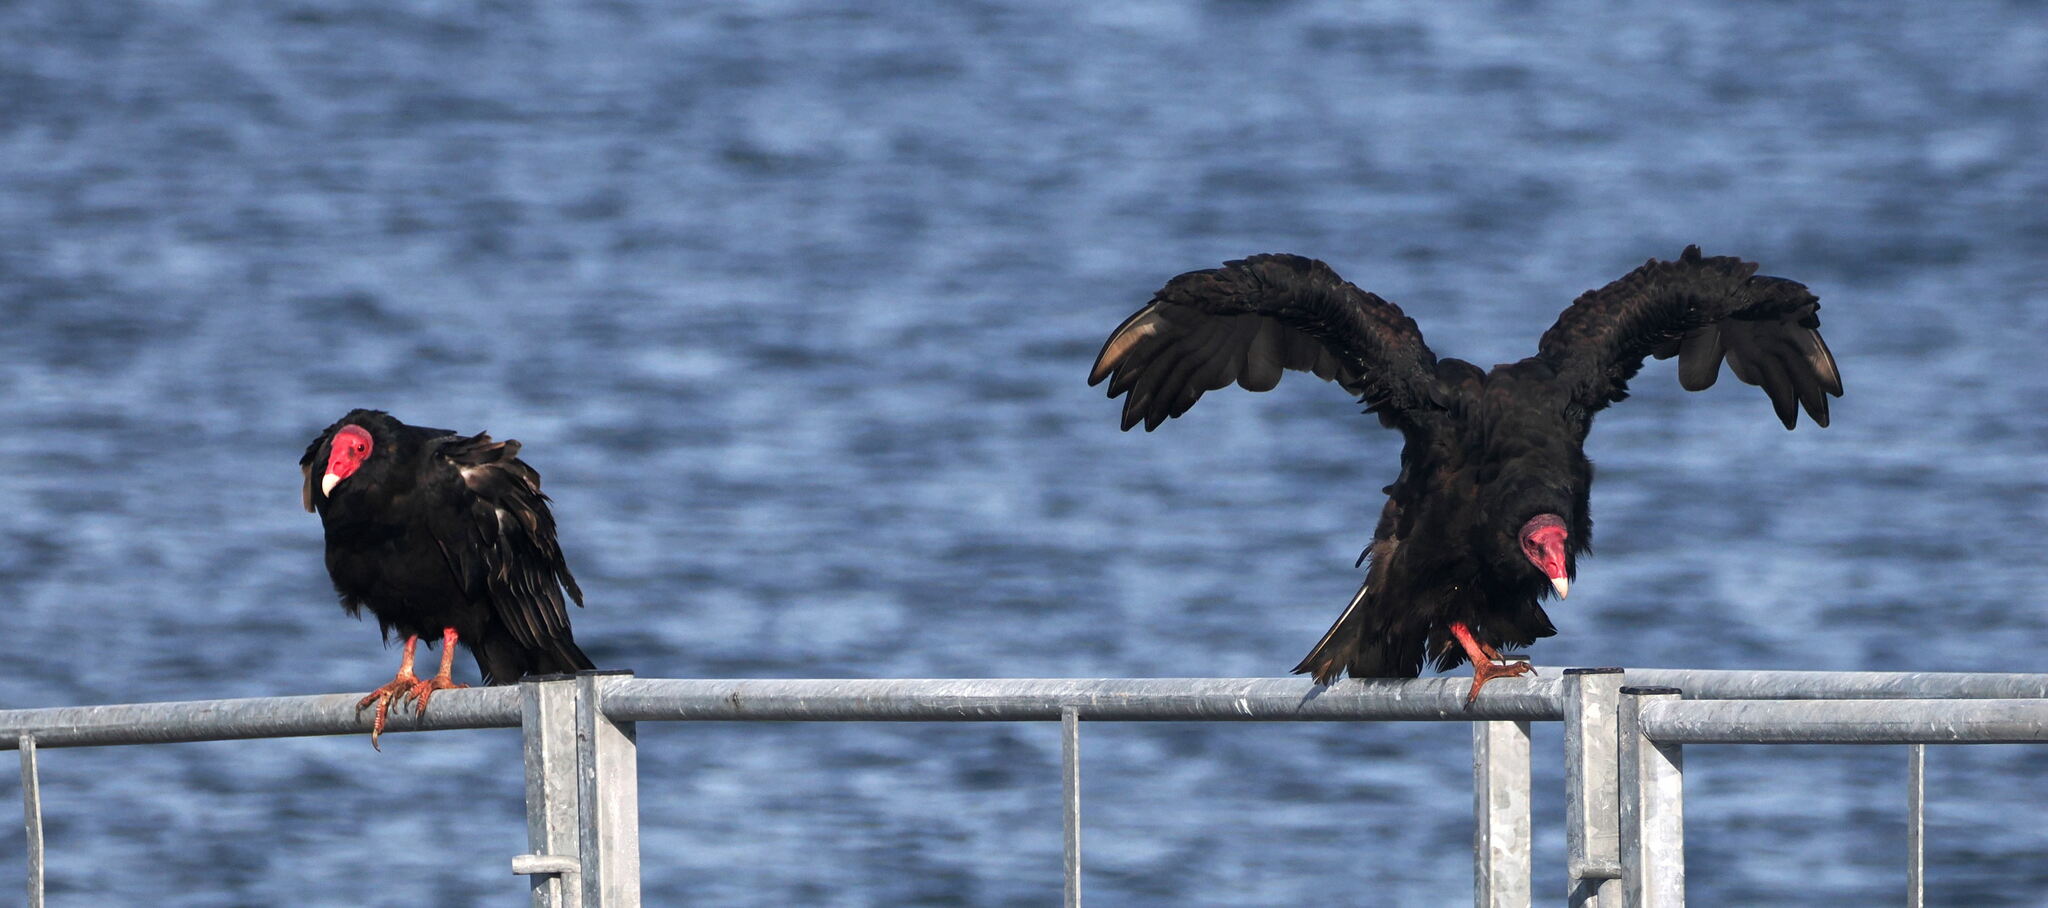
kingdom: Animalia
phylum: Chordata
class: Aves
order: Accipitriformes
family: Cathartidae
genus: Cathartes
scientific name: Cathartes aura
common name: Turkey vulture
